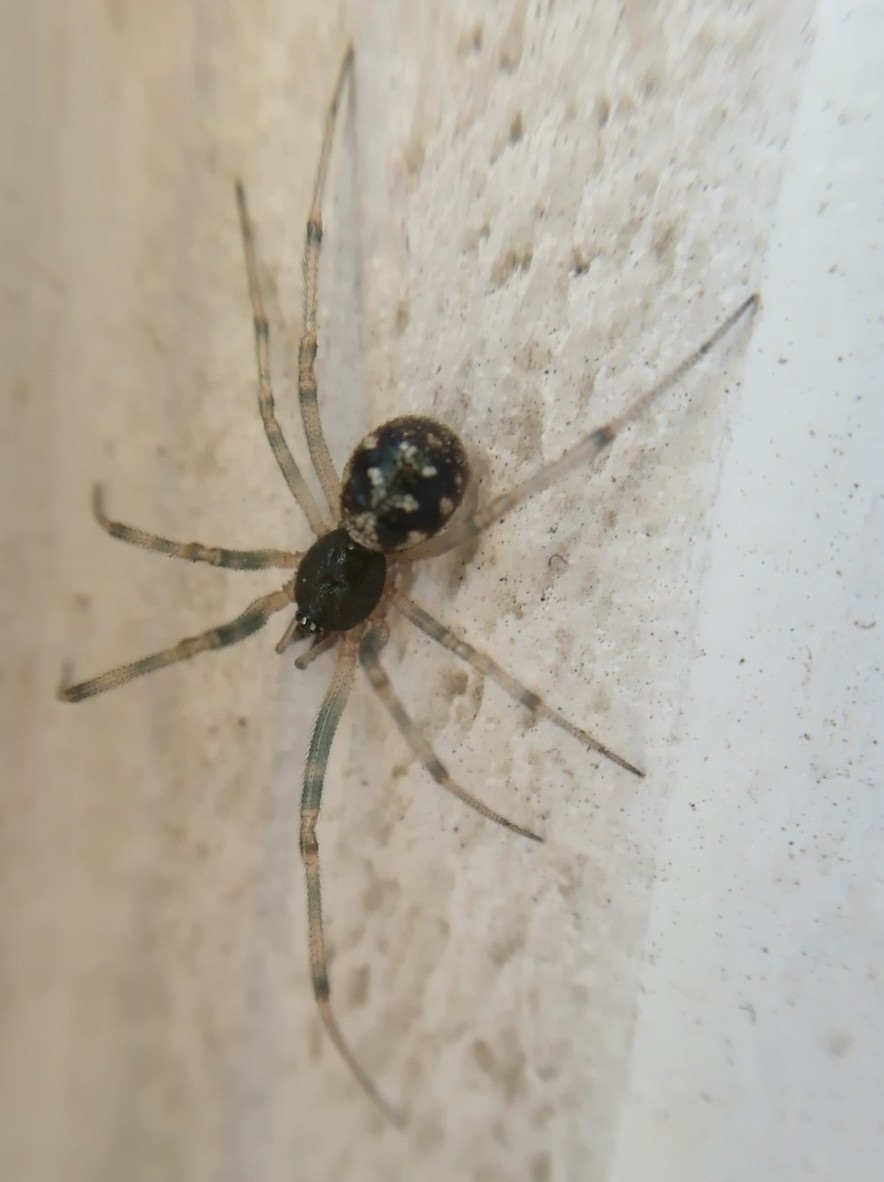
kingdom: Animalia
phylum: Arthropoda
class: Arachnida
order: Araneae
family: Theridiidae
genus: Steatoda
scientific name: Steatoda triangulosa
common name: Triangulate bud spider
